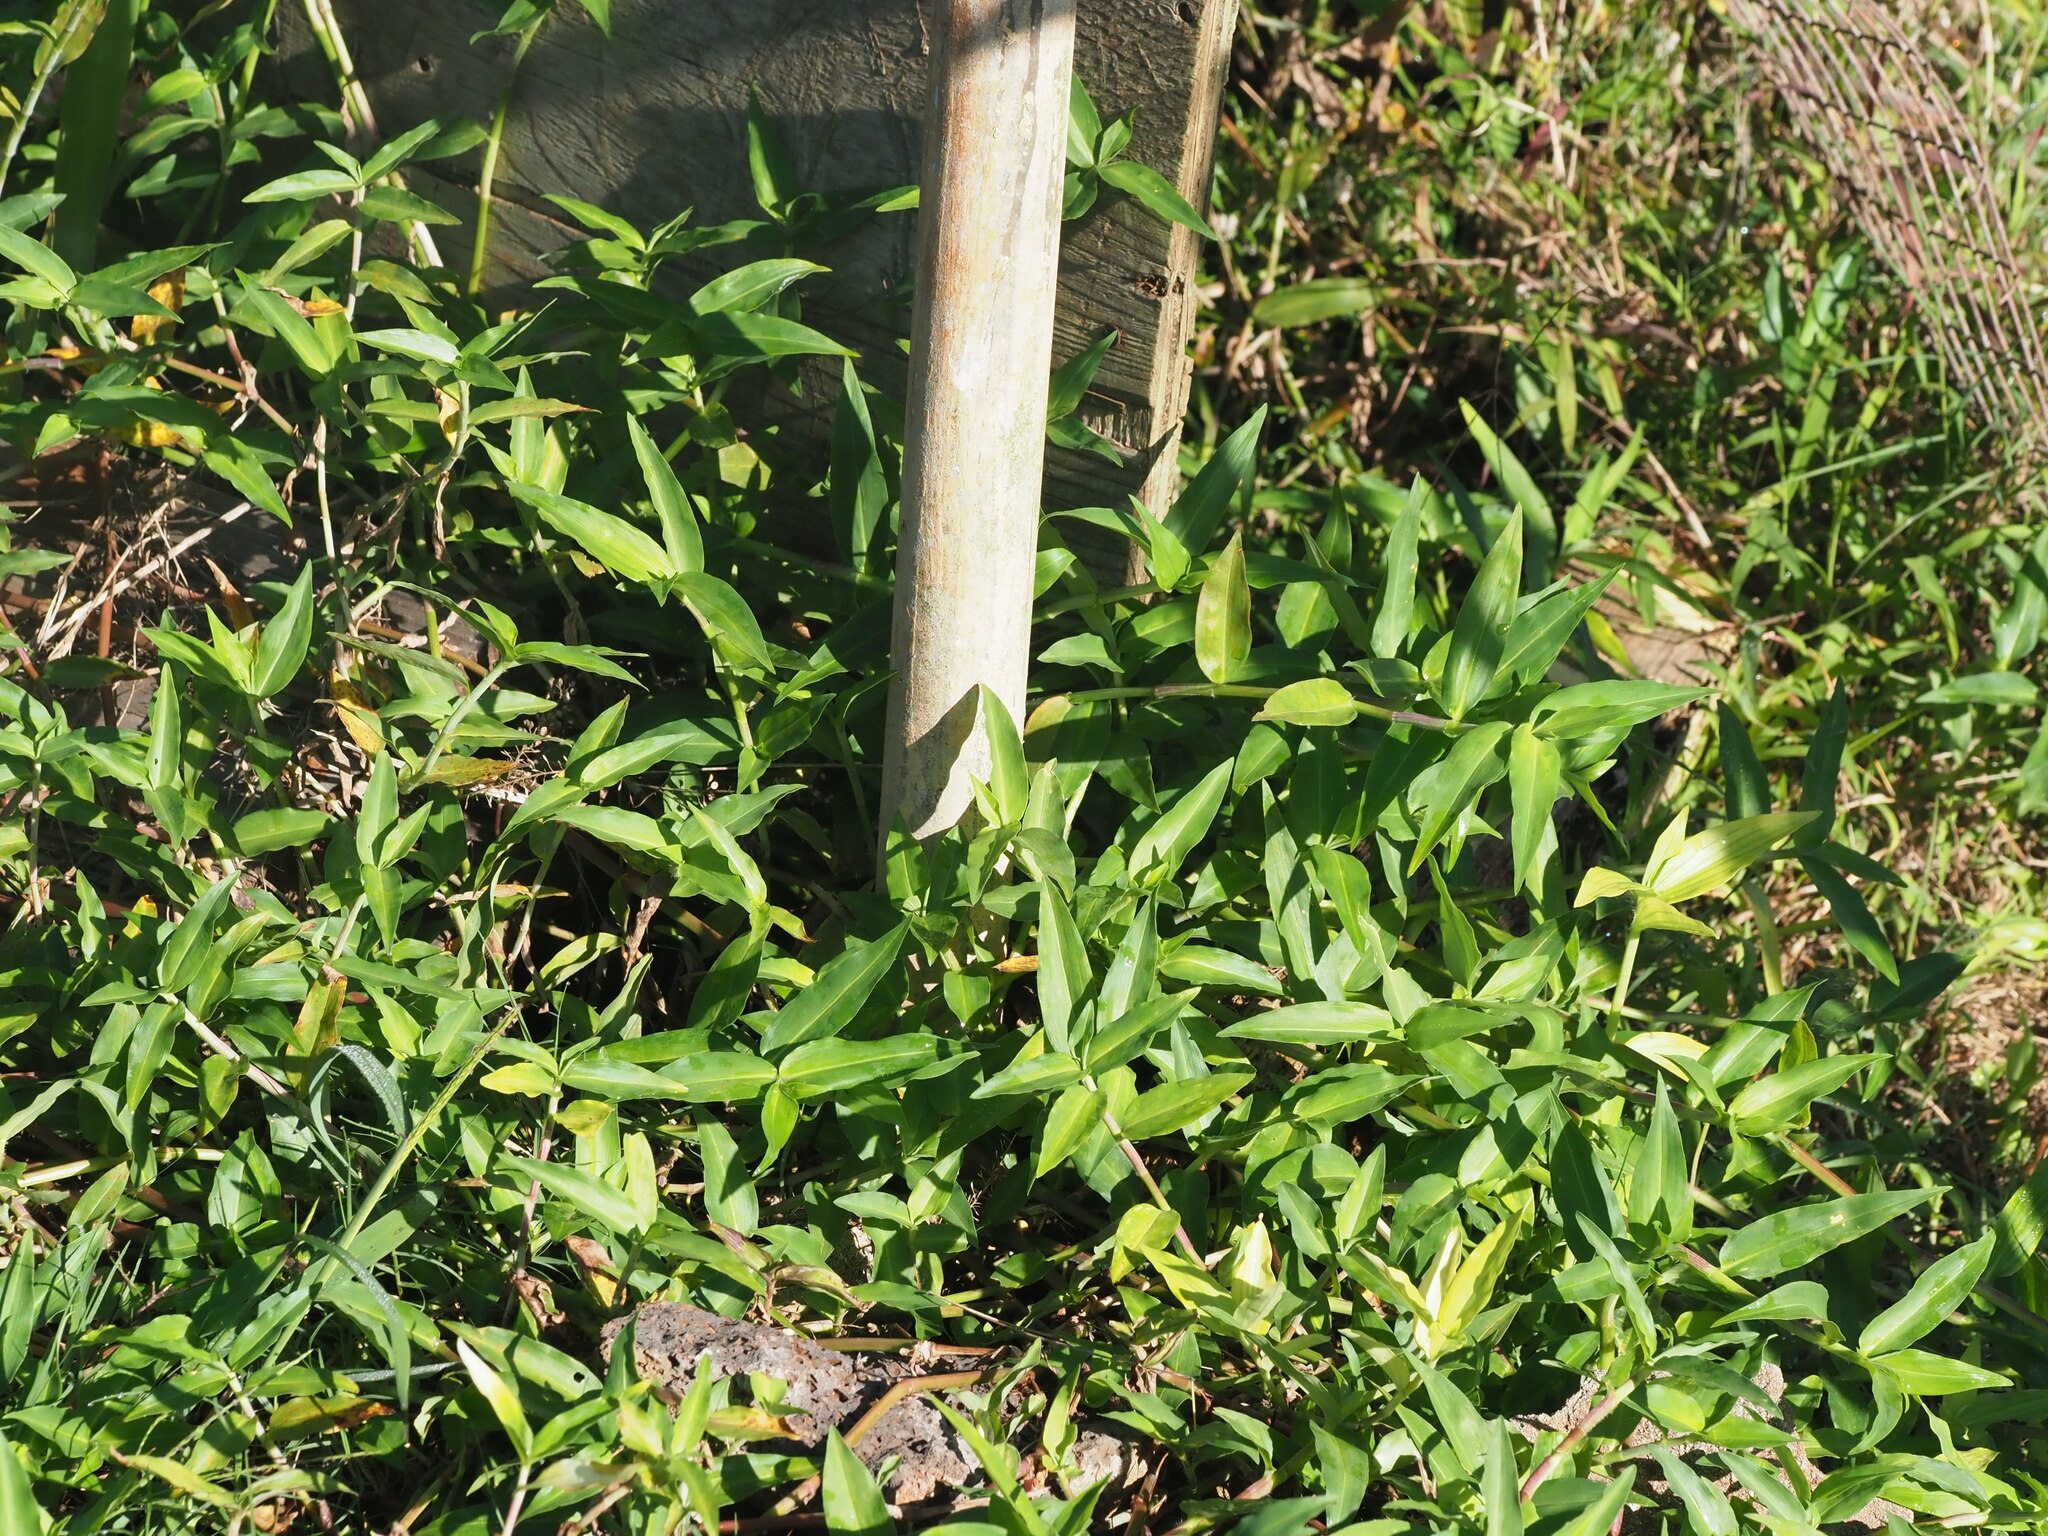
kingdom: Plantae
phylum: Tracheophyta
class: Liliopsida
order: Commelinales
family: Commelinaceae
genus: Commelina
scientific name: Commelina diffusa
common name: Climbing dayflower
